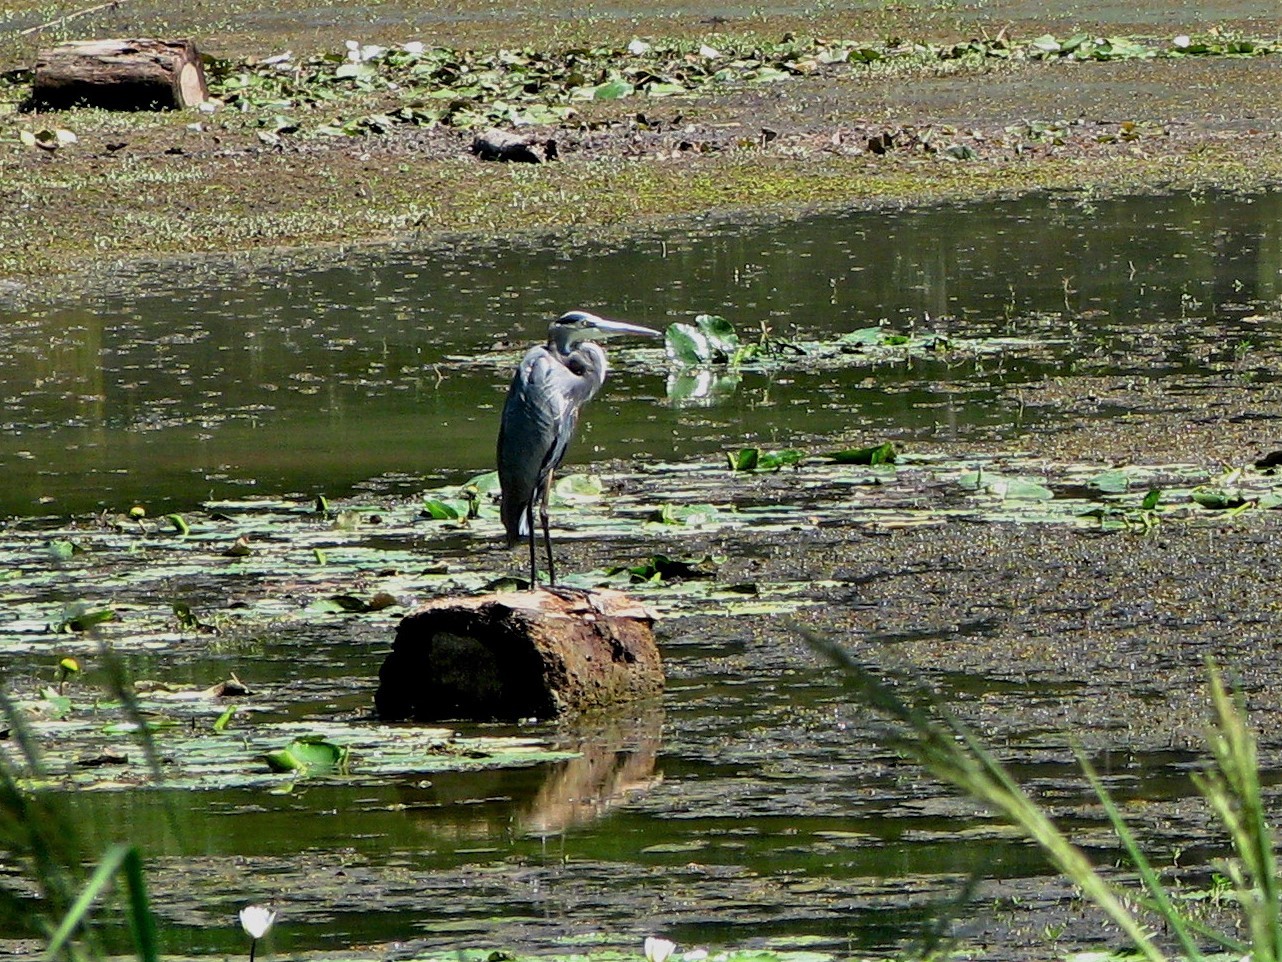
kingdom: Animalia
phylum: Chordata
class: Aves
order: Pelecaniformes
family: Ardeidae
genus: Ardea
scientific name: Ardea herodias
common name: Great blue heron
